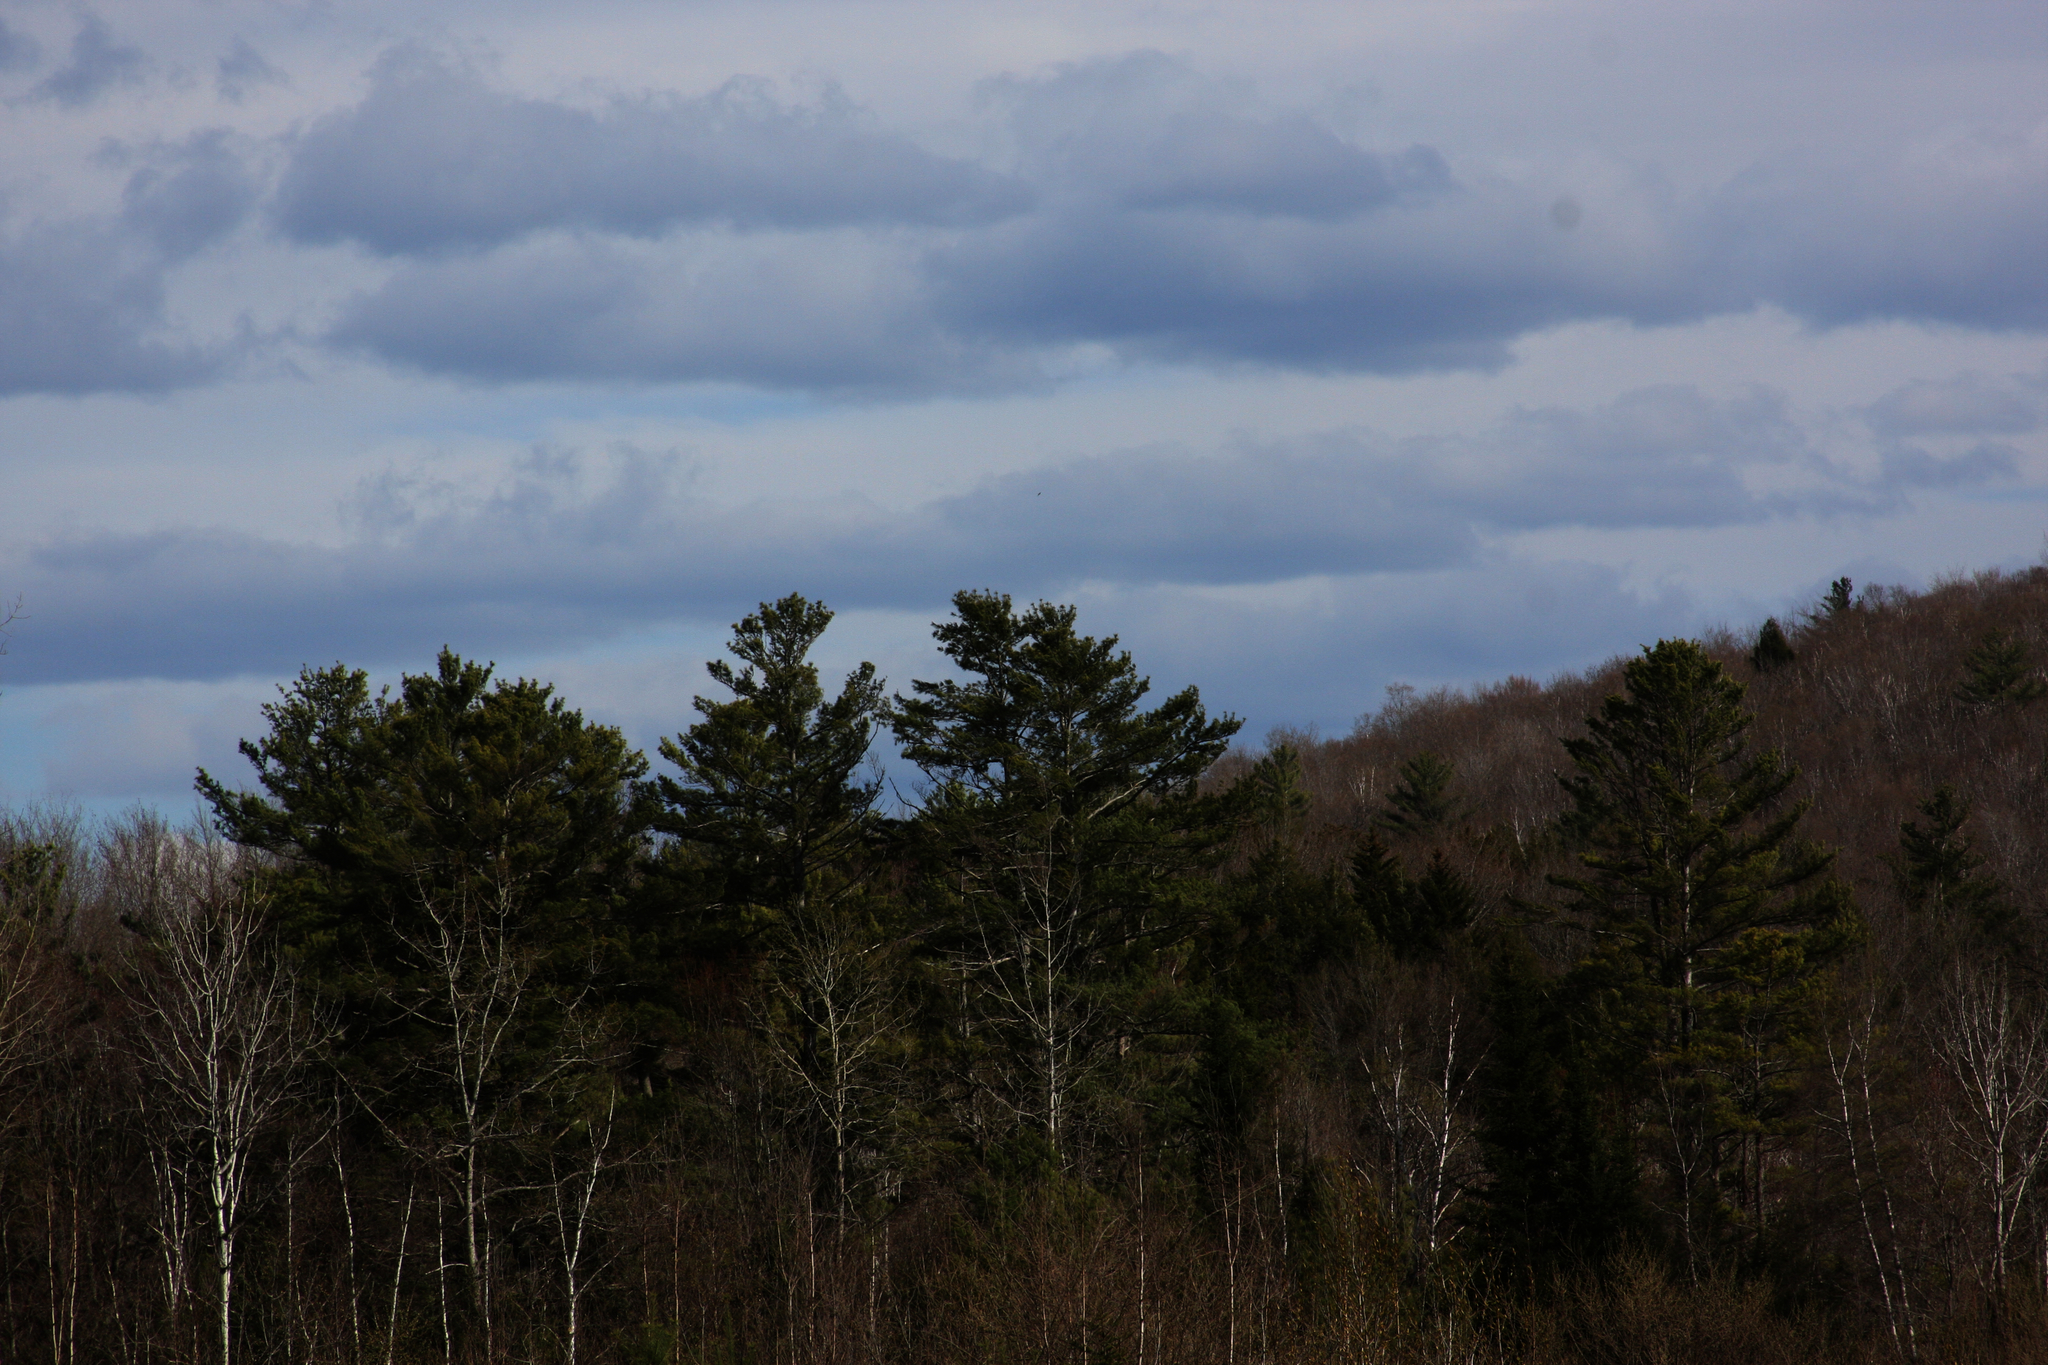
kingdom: Plantae
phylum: Tracheophyta
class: Pinopsida
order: Pinales
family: Pinaceae
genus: Pinus
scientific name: Pinus strobus
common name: Weymouth pine
